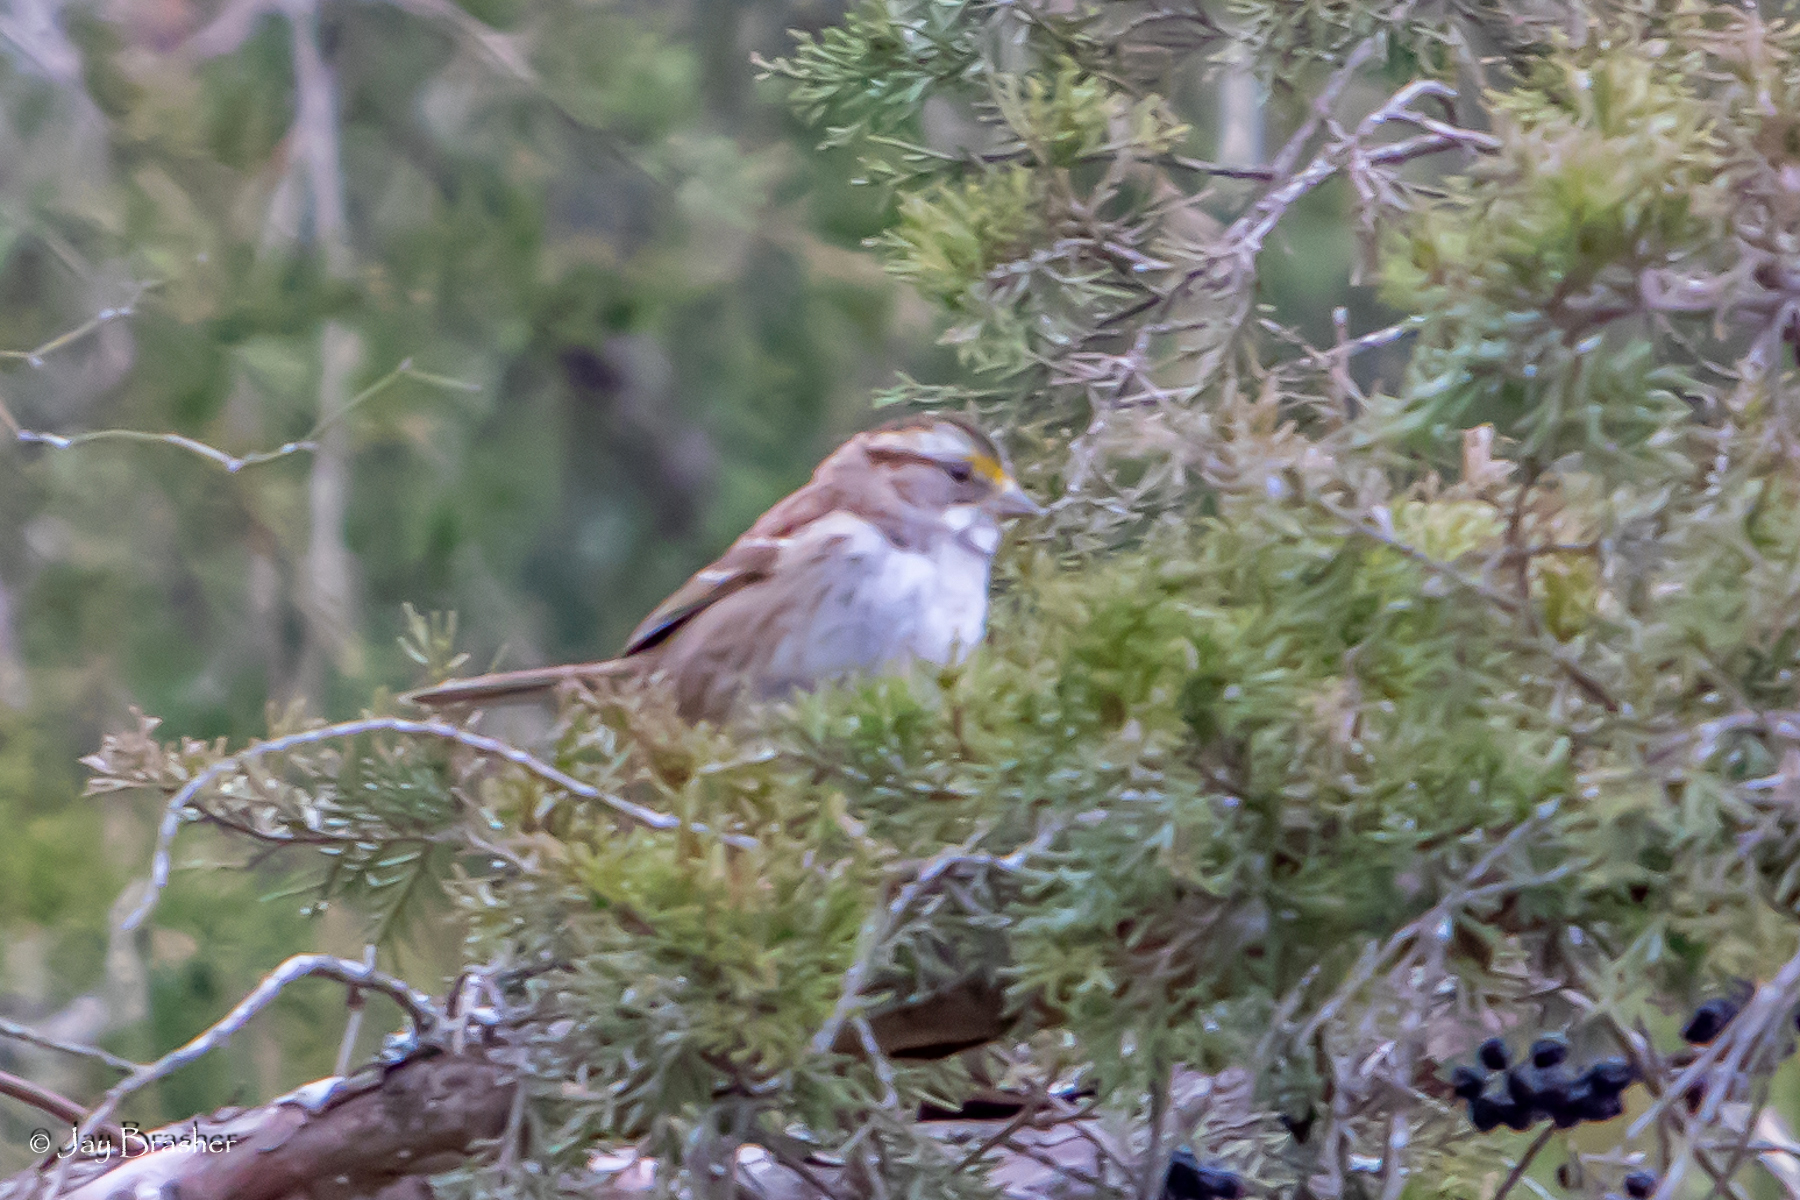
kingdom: Animalia
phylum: Chordata
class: Aves
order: Passeriformes
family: Passerellidae
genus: Zonotrichia
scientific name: Zonotrichia albicollis
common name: White-throated sparrow
